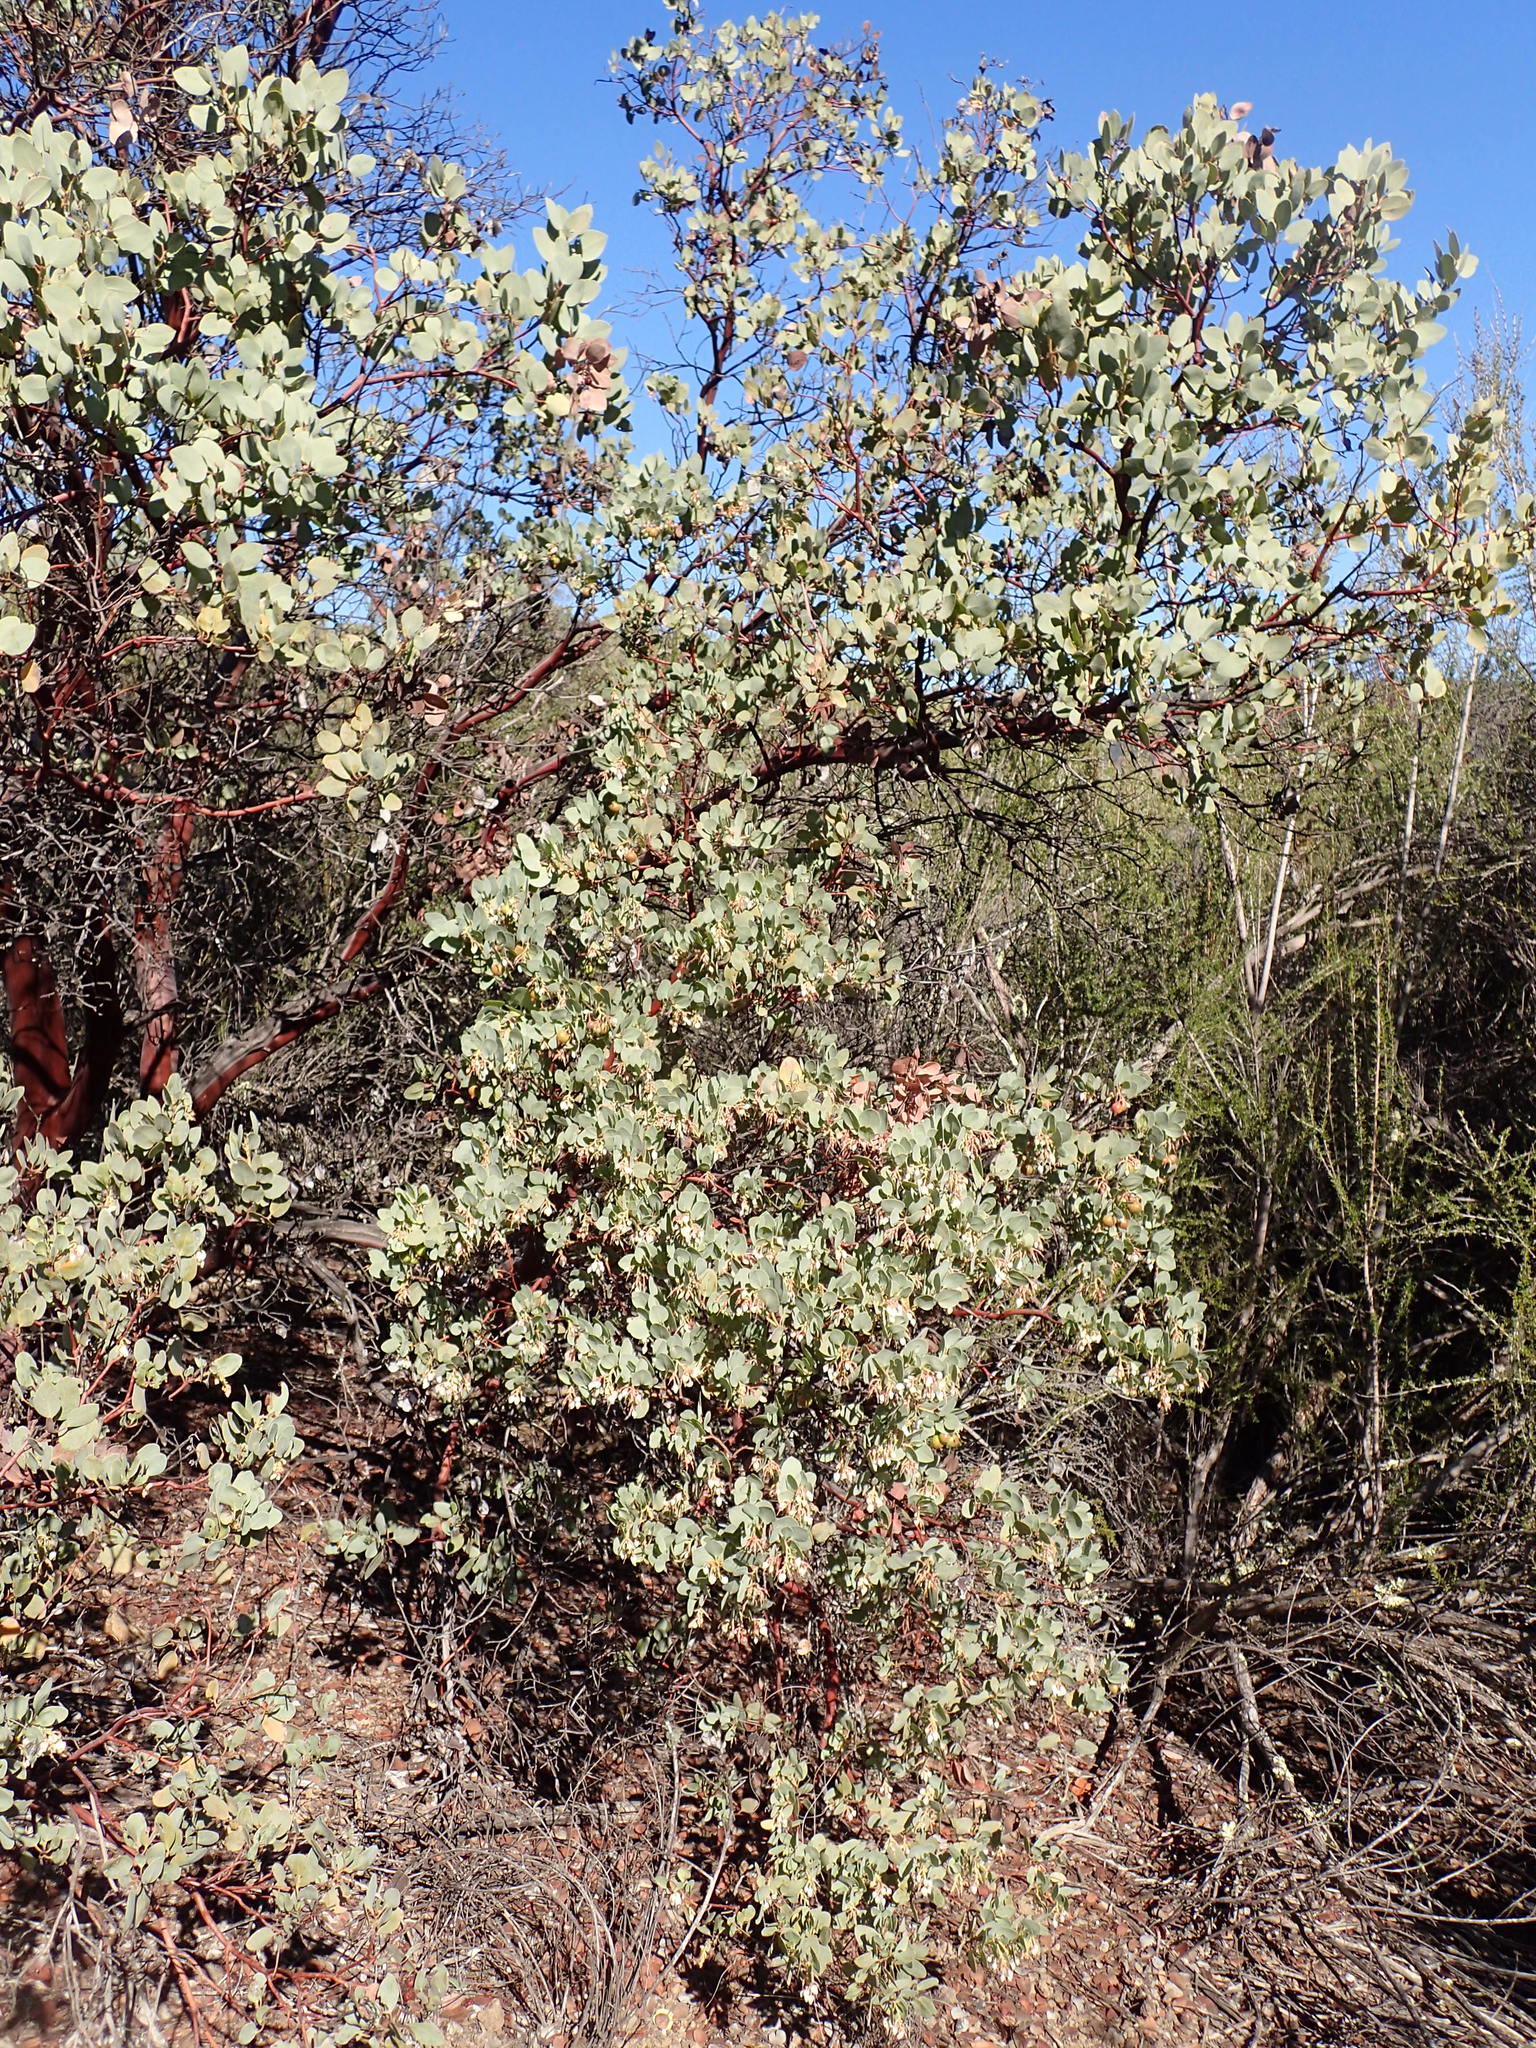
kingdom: Plantae
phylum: Tracheophyta
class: Magnoliopsida
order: Ericales
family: Ericaceae
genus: Arctostaphylos
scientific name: Arctostaphylos glauca
